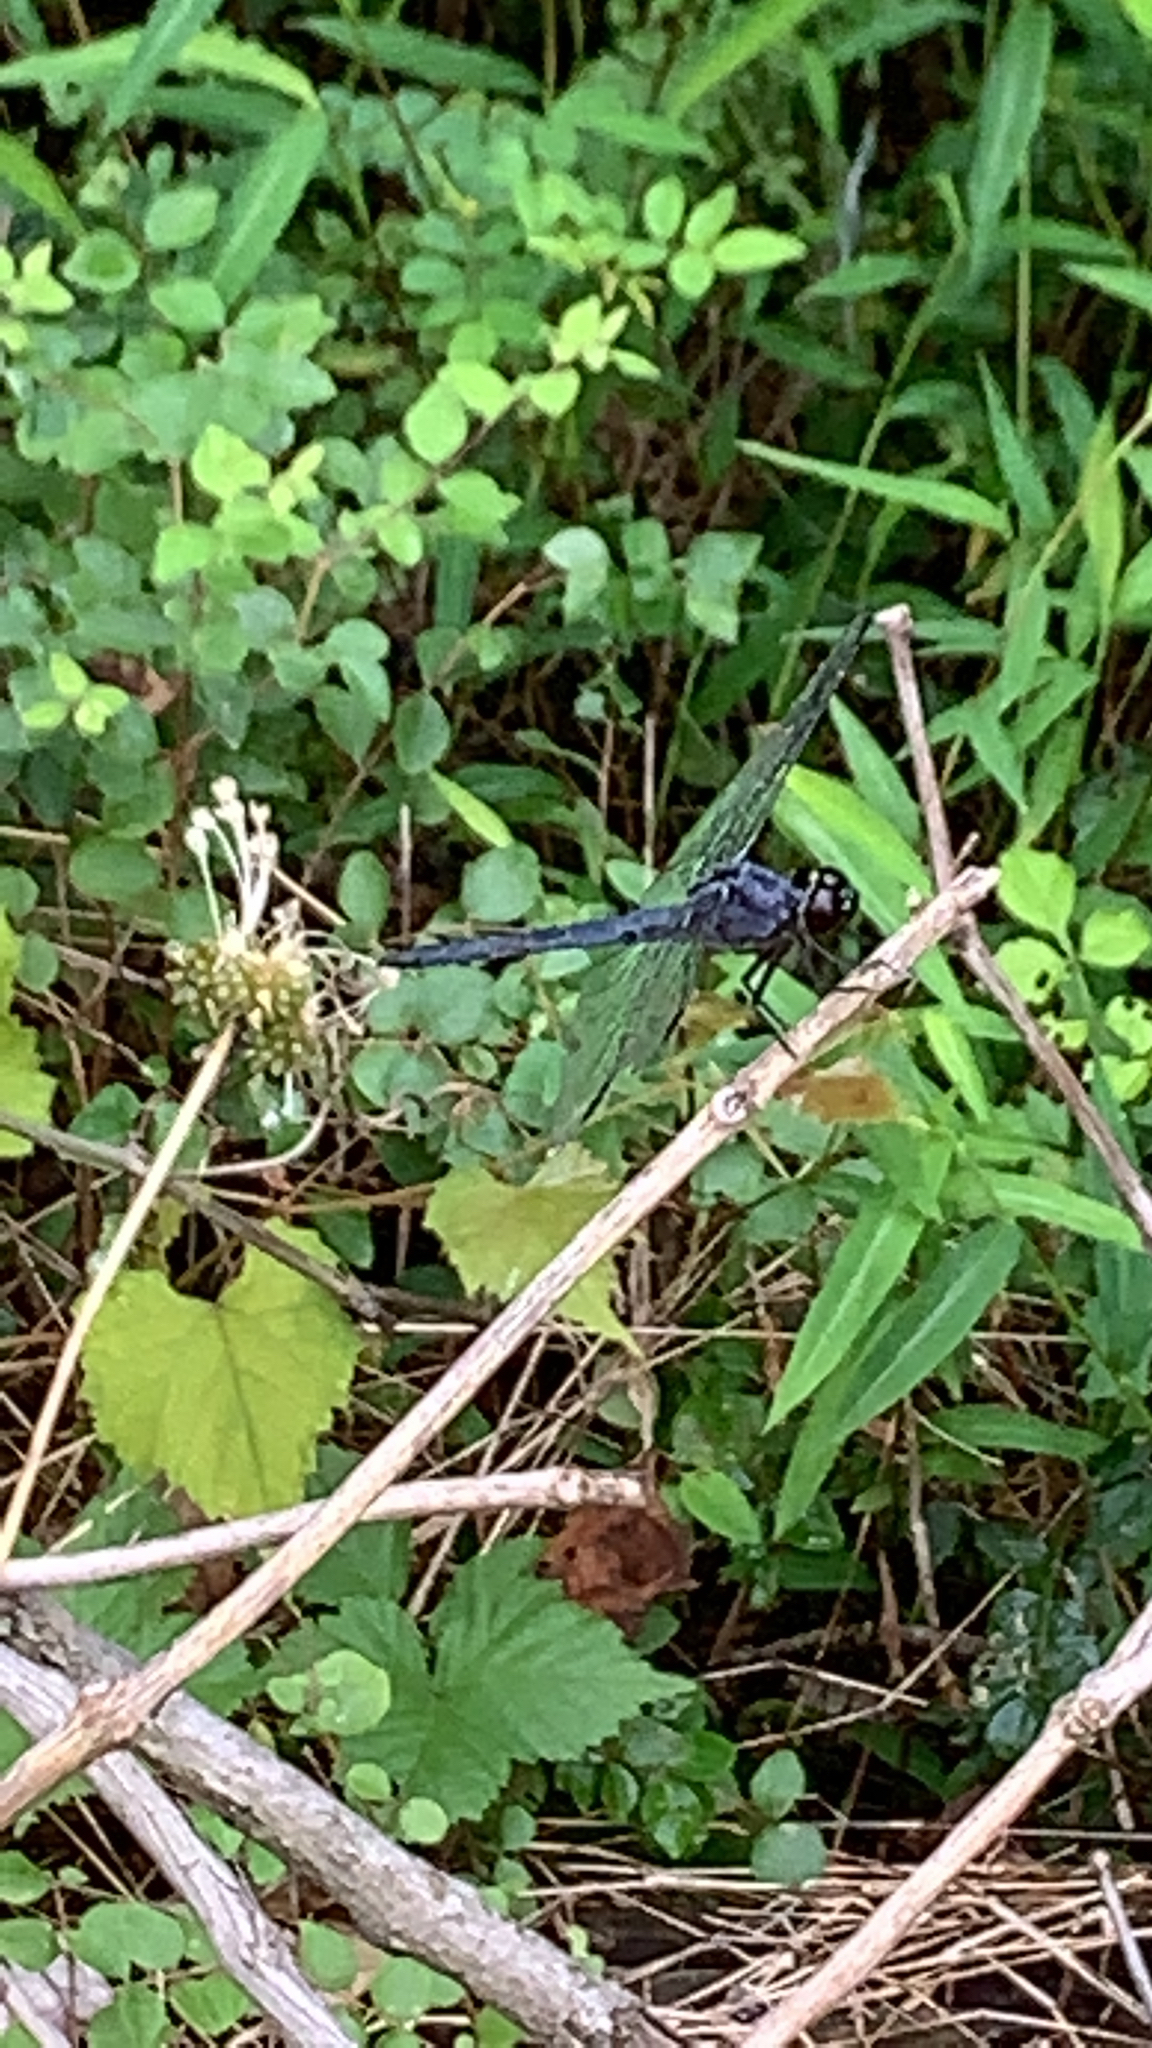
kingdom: Animalia
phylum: Arthropoda
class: Insecta
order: Odonata
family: Libellulidae
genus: Libellula
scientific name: Libellula incesta
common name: Slaty skimmer
